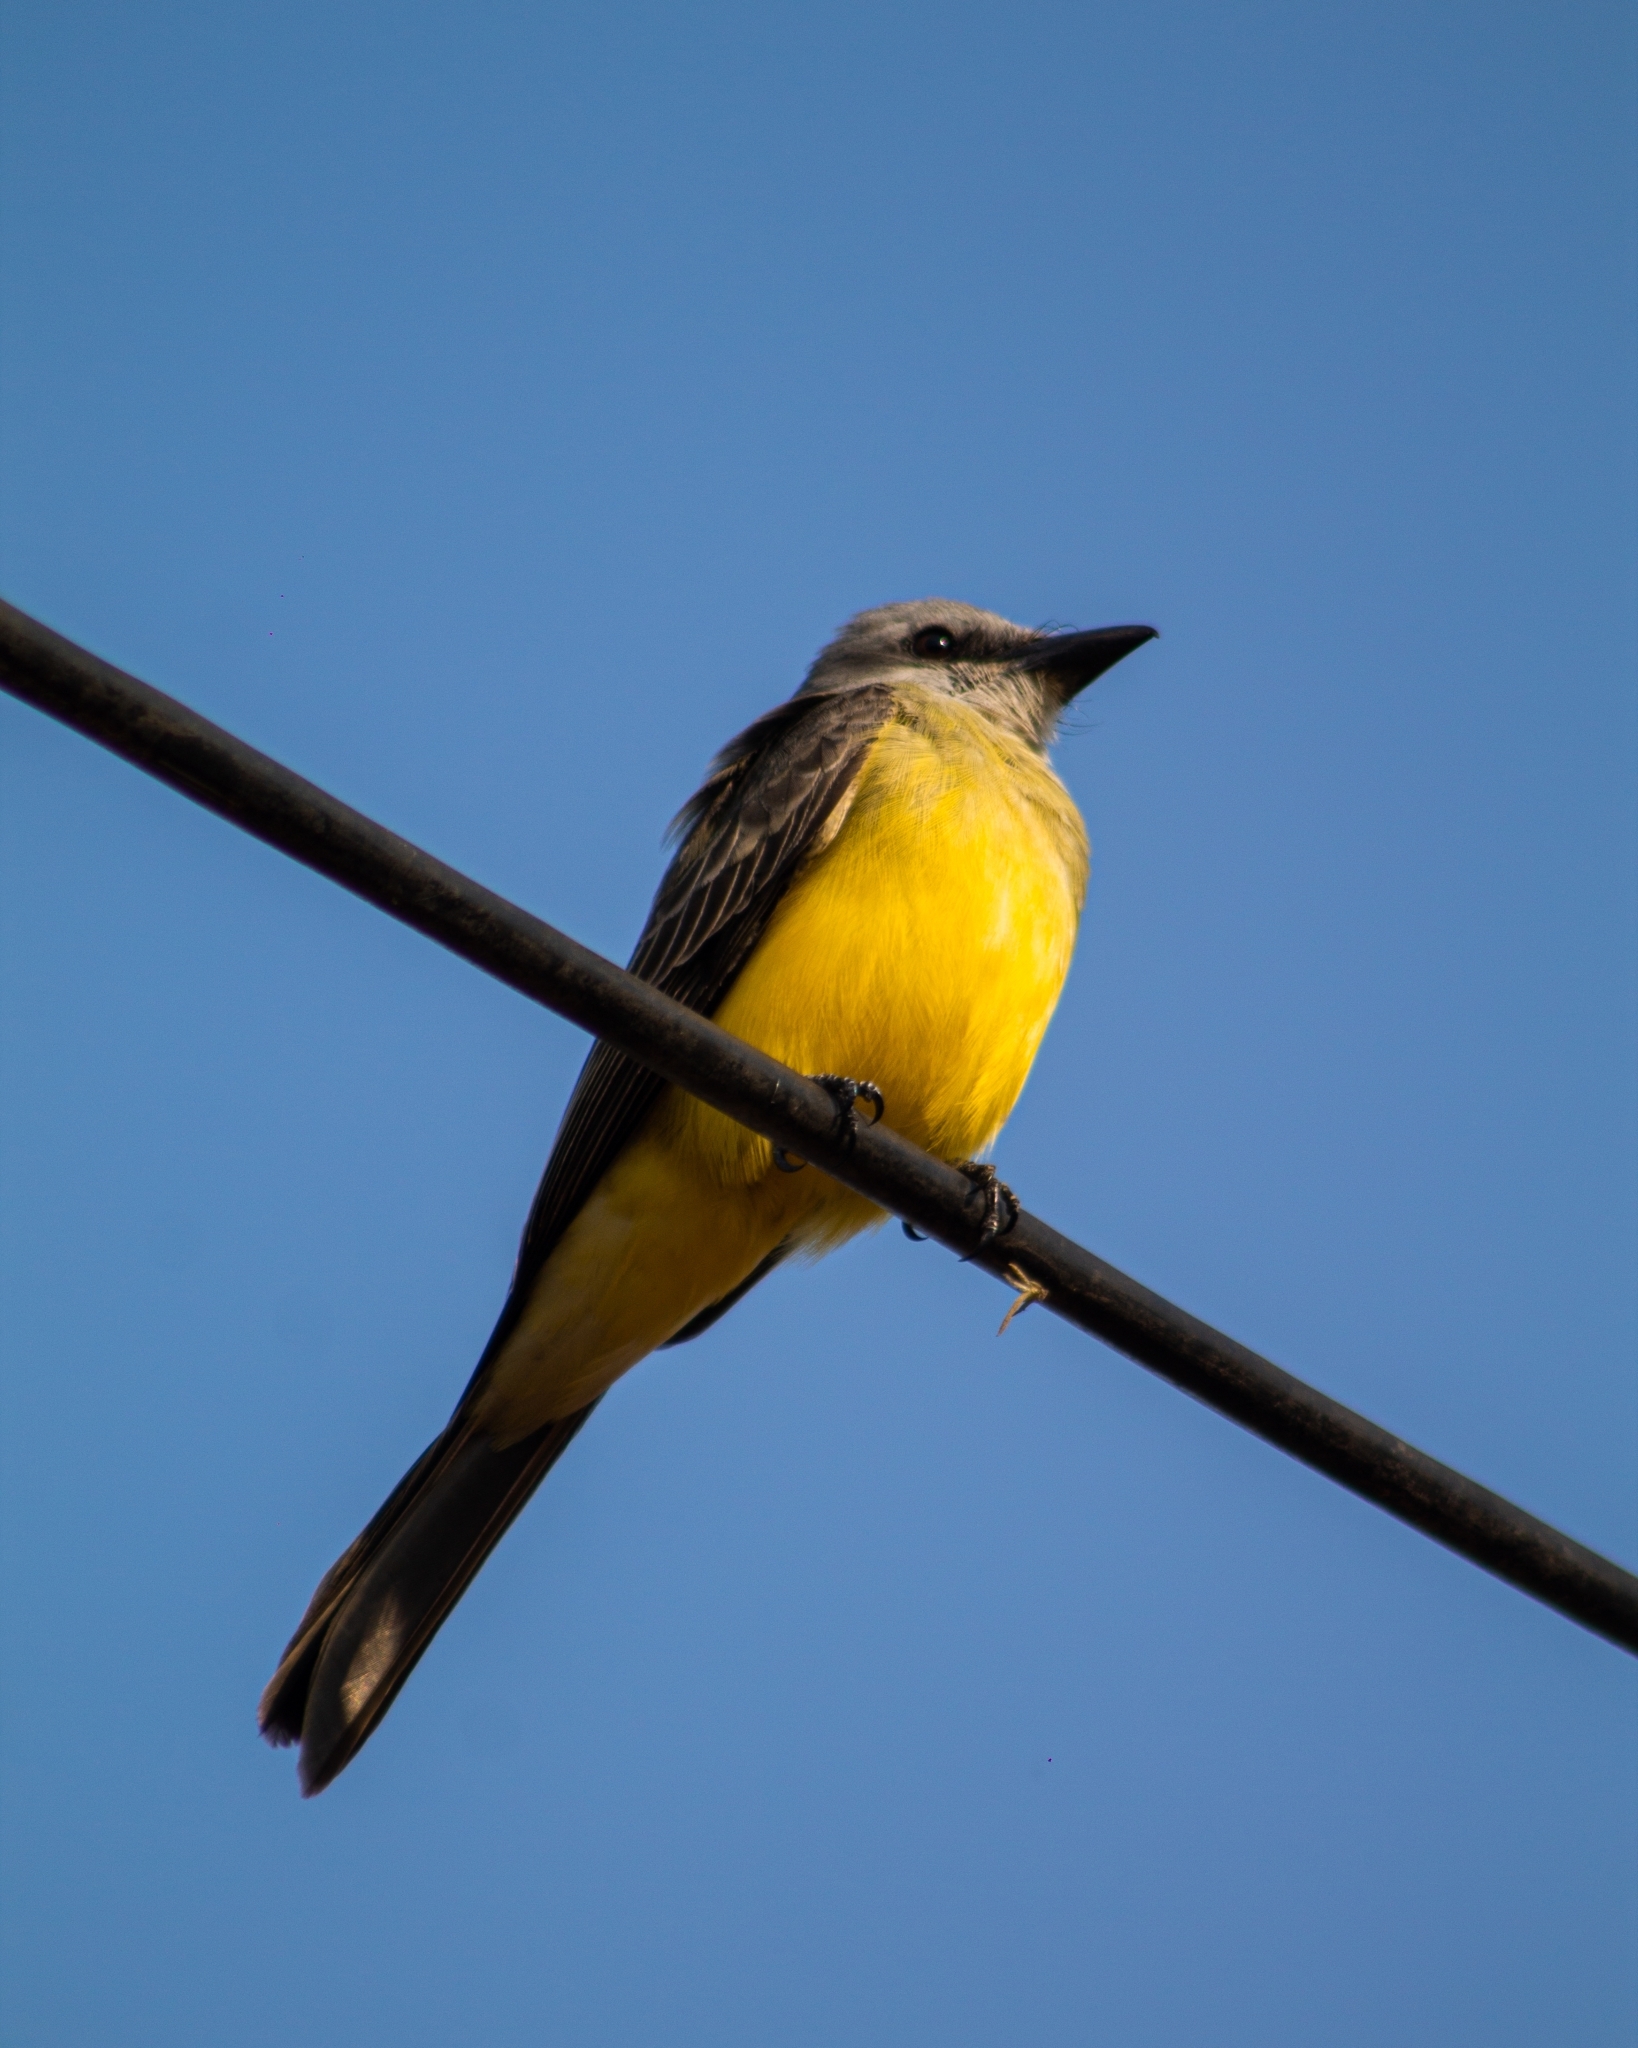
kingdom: Animalia
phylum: Chordata
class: Aves
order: Passeriformes
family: Tyrannidae
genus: Tyrannus
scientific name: Tyrannus melancholicus
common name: Tropical kingbird
